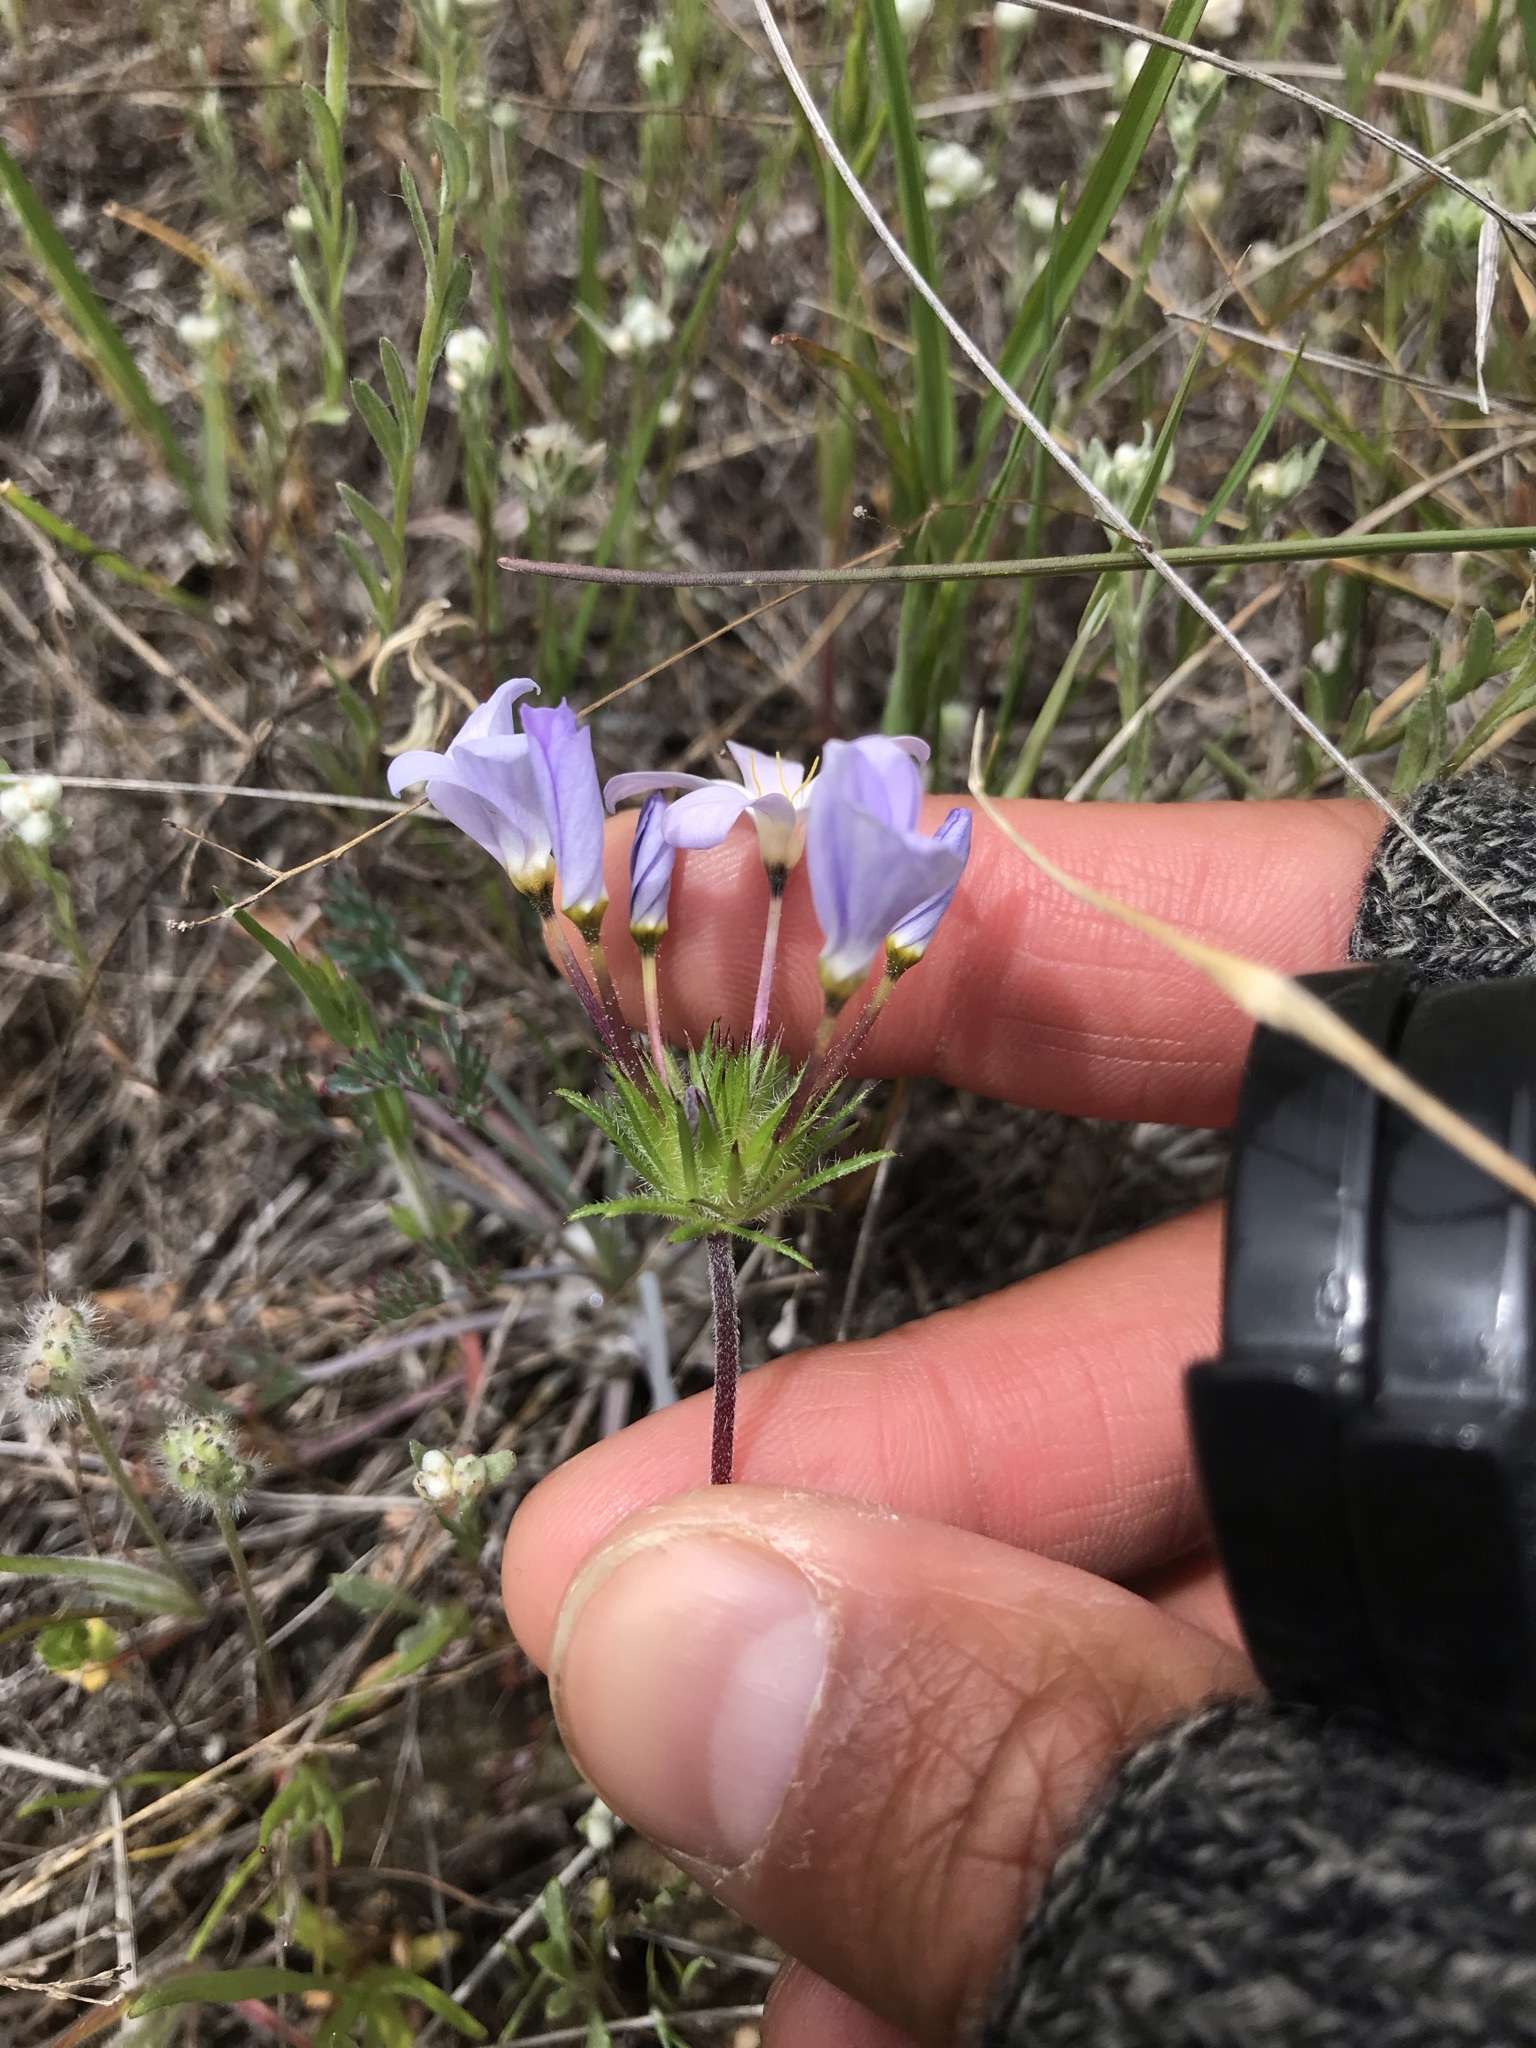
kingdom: Plantae
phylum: Tracheophyta
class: Magnoliopsida
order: Ericales
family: Polemoniaceae
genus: Leptosiphon
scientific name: Leptosiphon androsaceus
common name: False babystars
